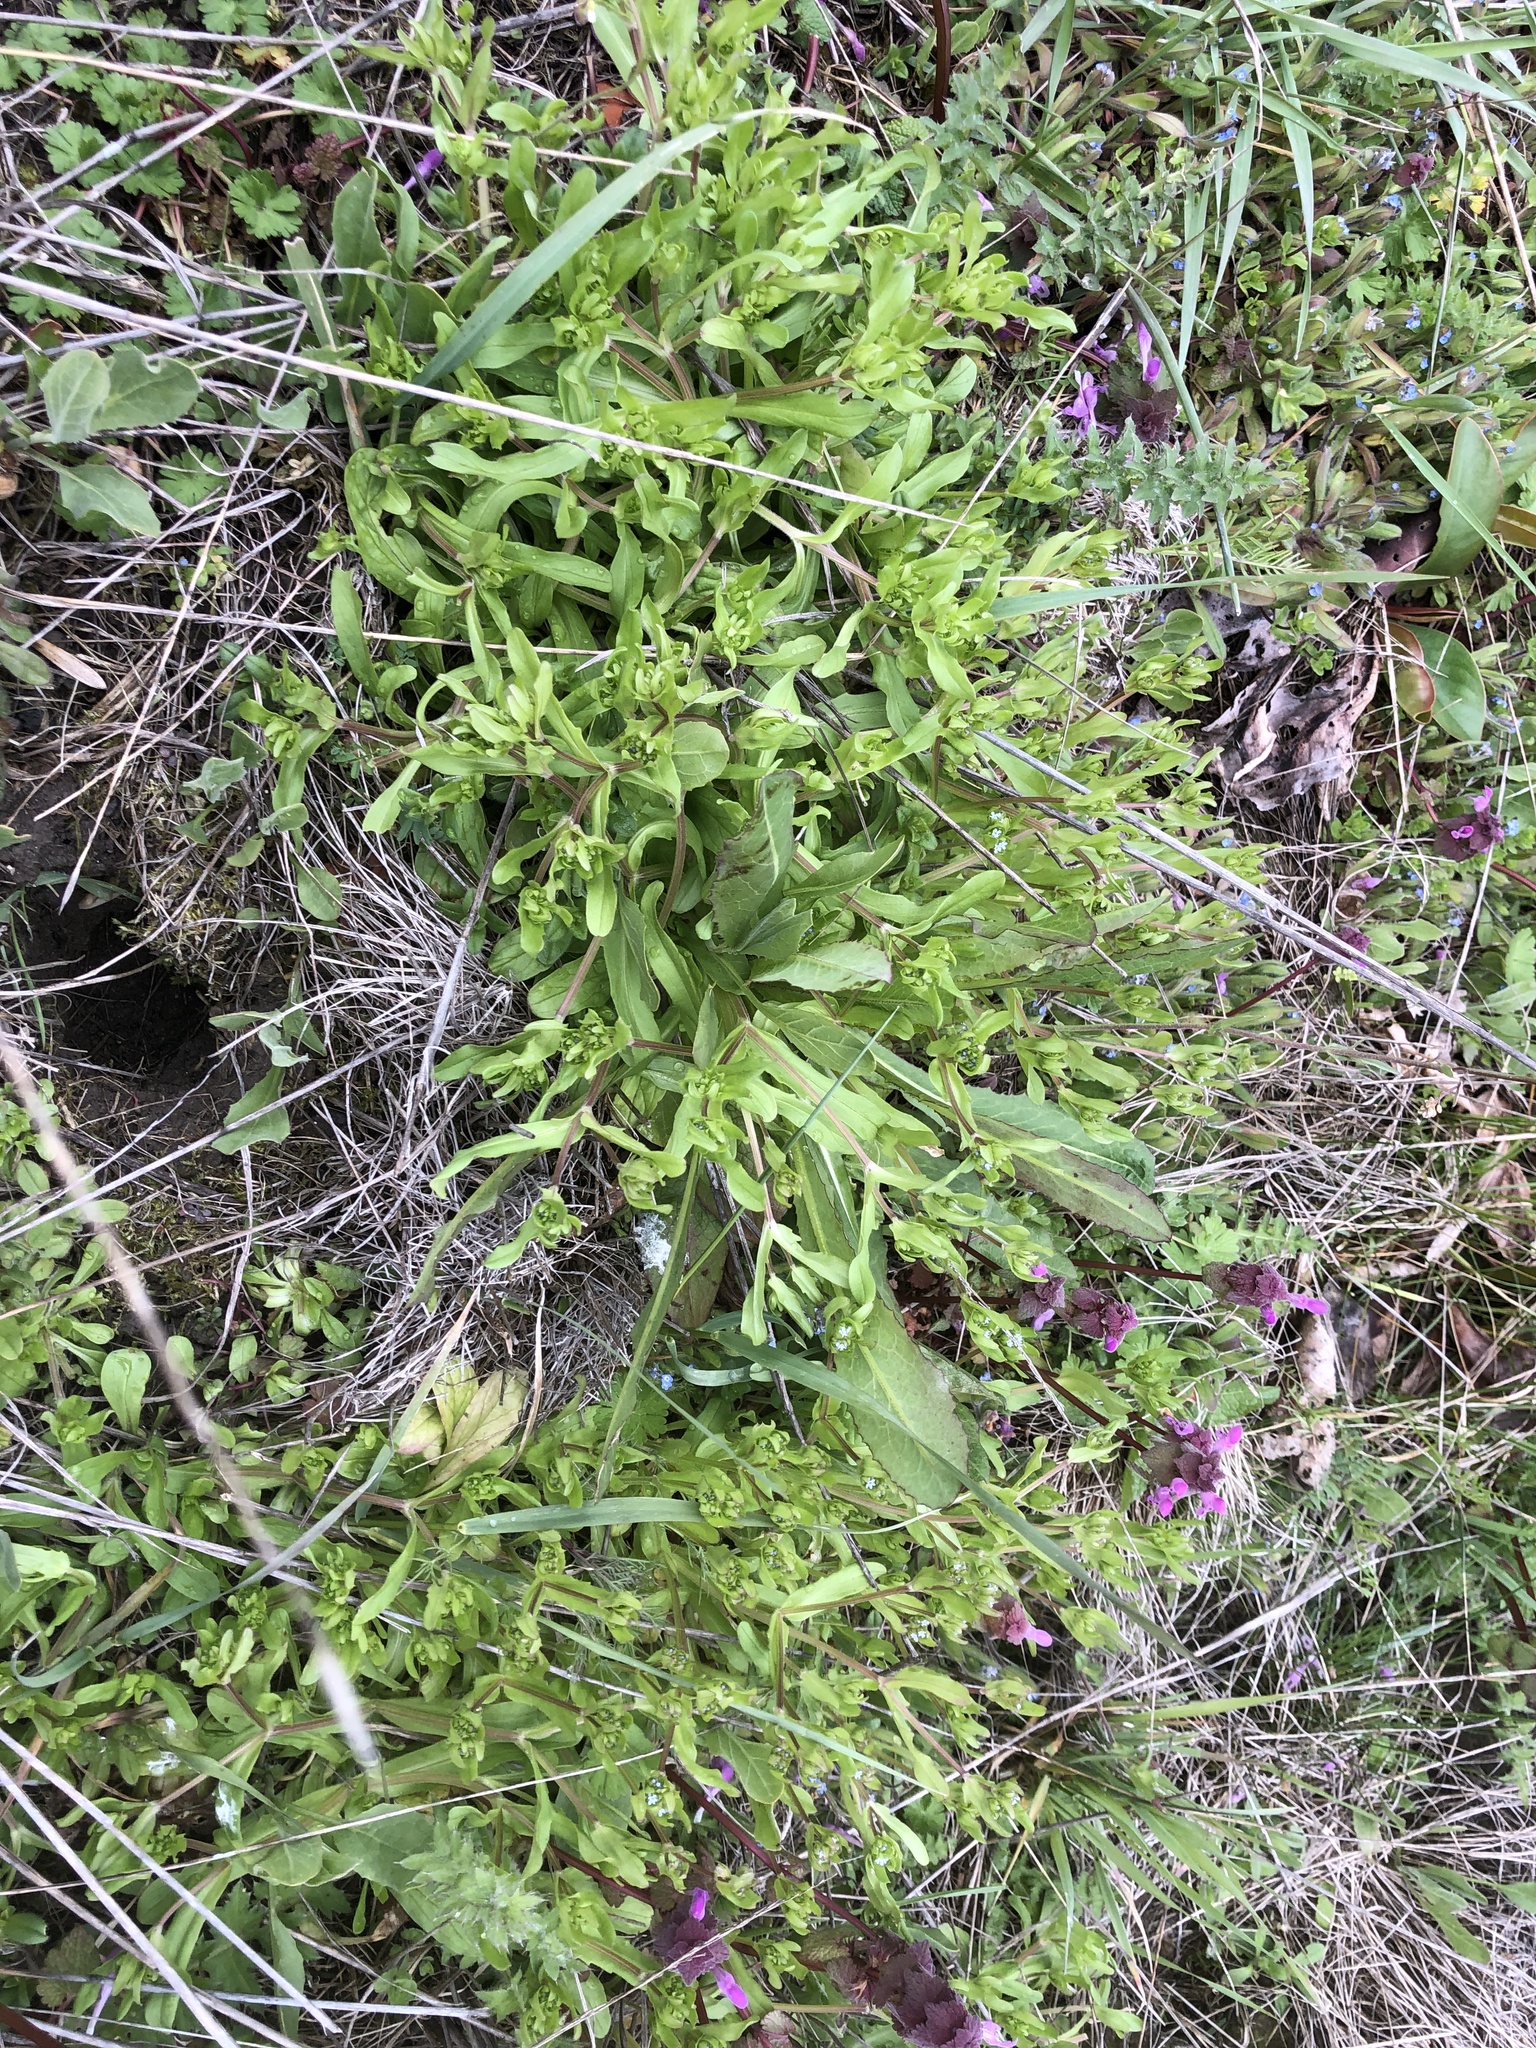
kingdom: Plantae
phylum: Tracheophyta
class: Magnoliopsida
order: Dipsacales
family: Caprifoliaceae
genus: Valerianella
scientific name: Valerianella locusta
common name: Common cornsalad
